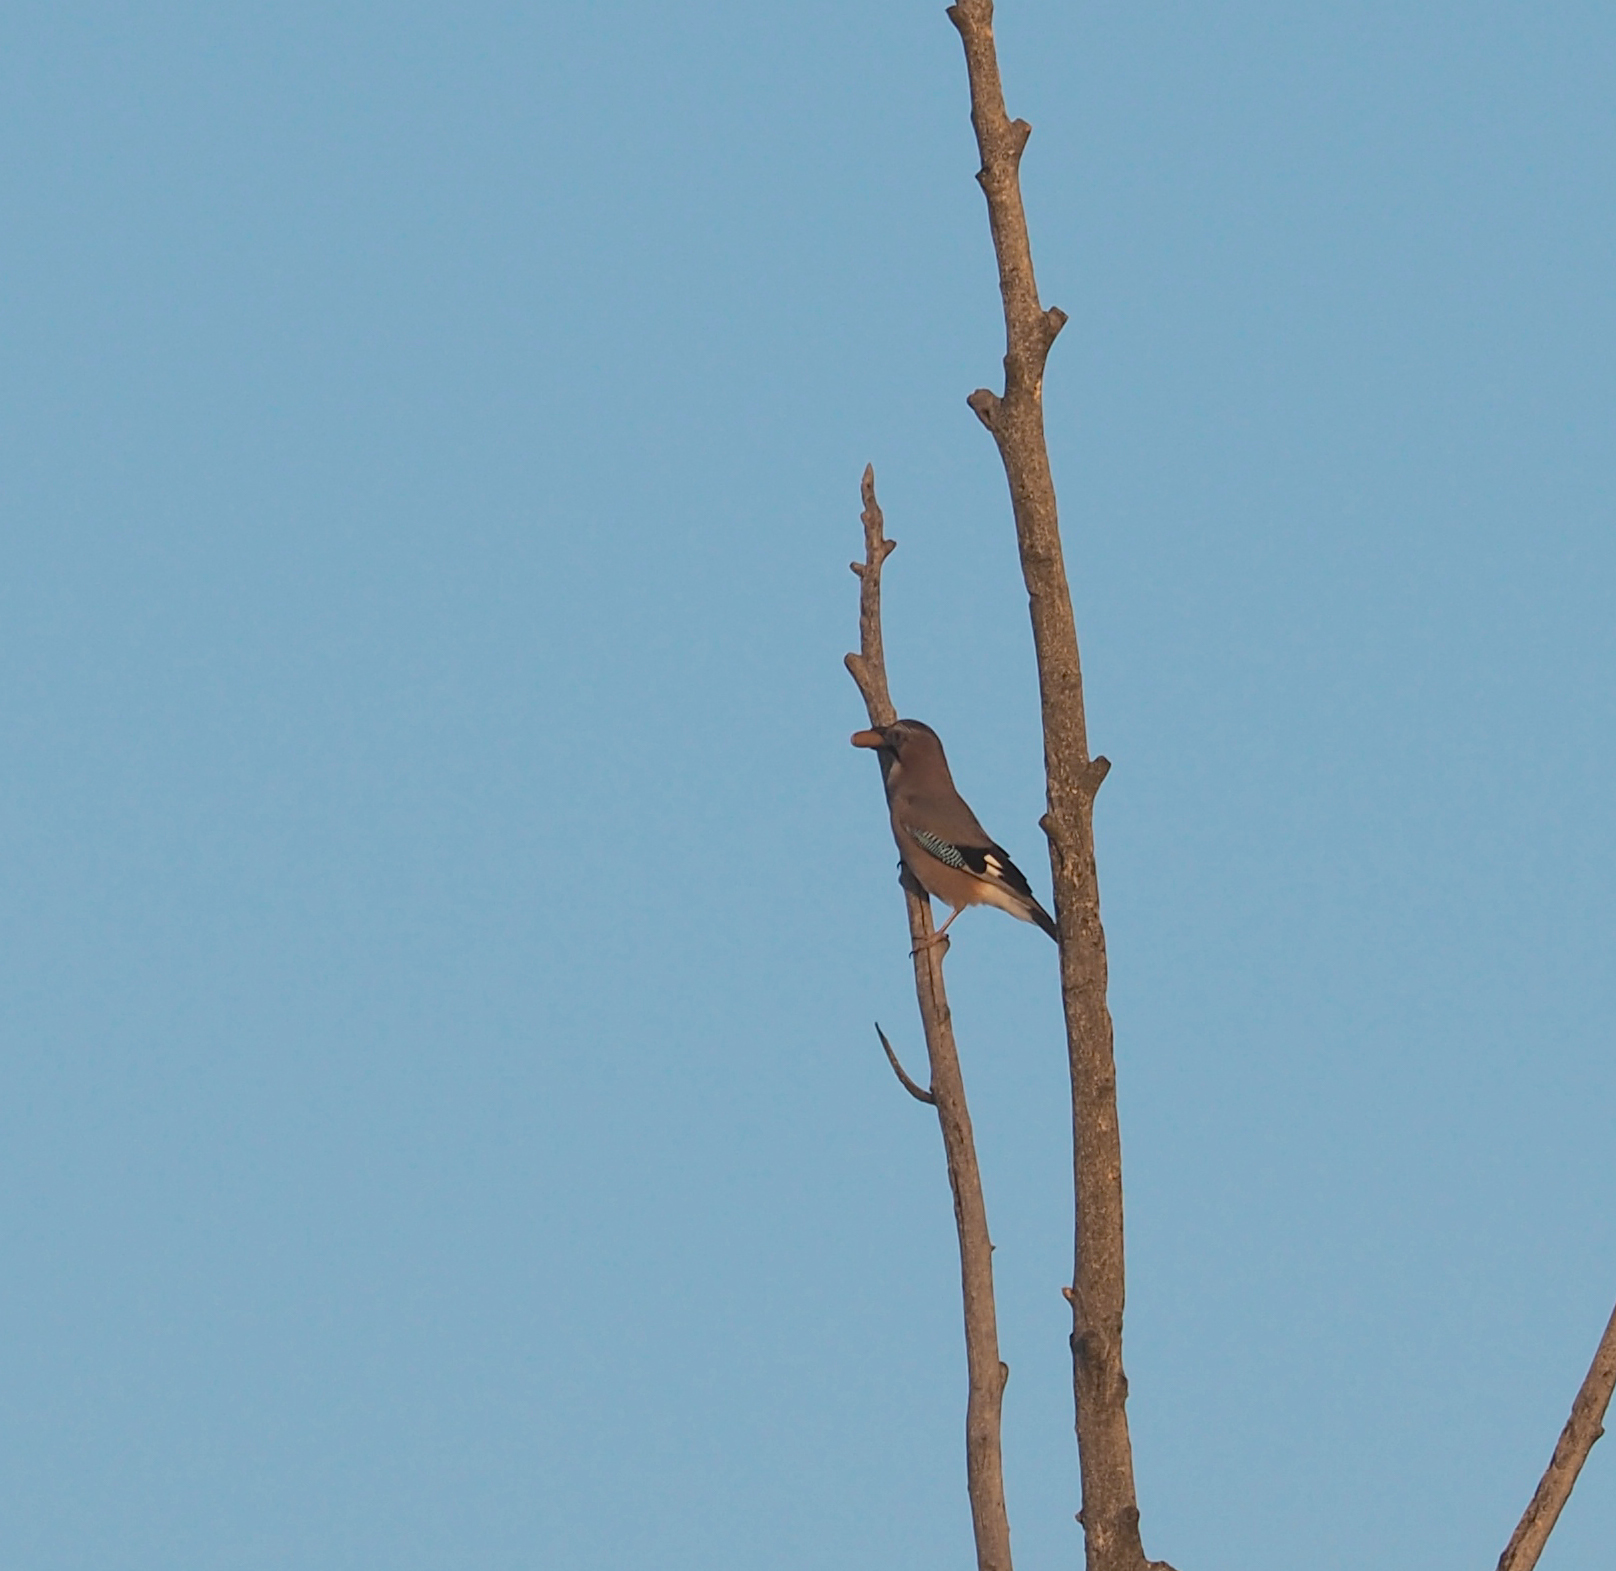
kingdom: Animalia
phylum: Chordata
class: Aves
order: Passeriformes
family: Corvidae
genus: Garrulus
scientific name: Garrulus glandarius
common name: Eurasian jay
